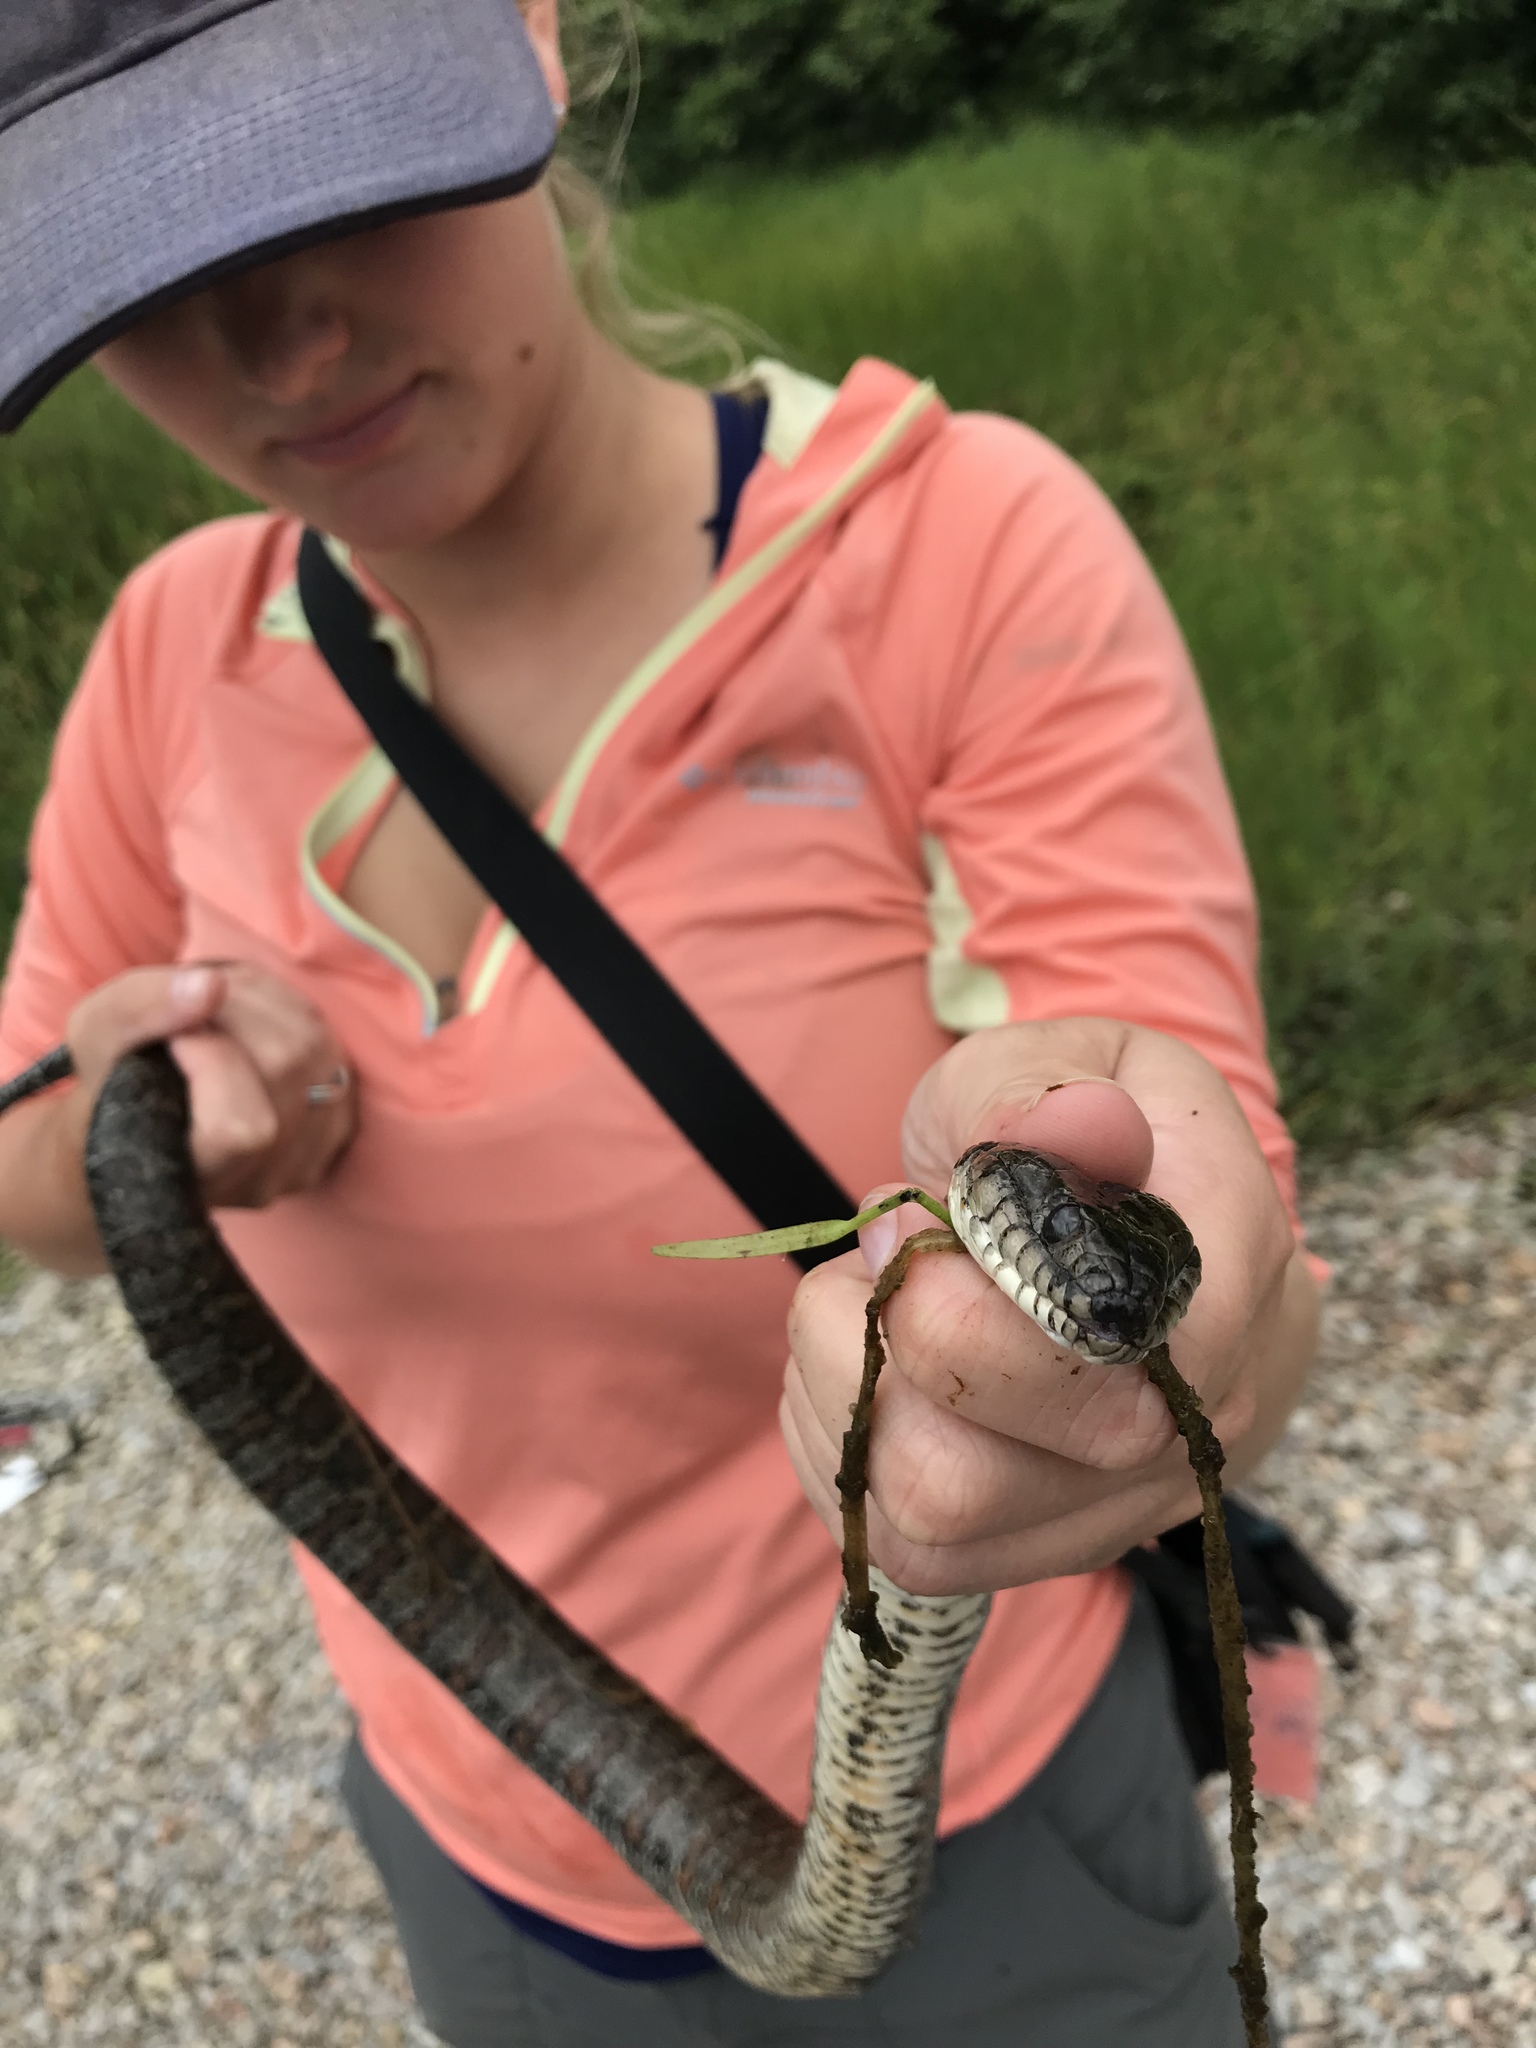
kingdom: Animalia
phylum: Chordata
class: Squamata
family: Colubridae
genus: Nerodia
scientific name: Nerodia sipedon
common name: Northern water snake
